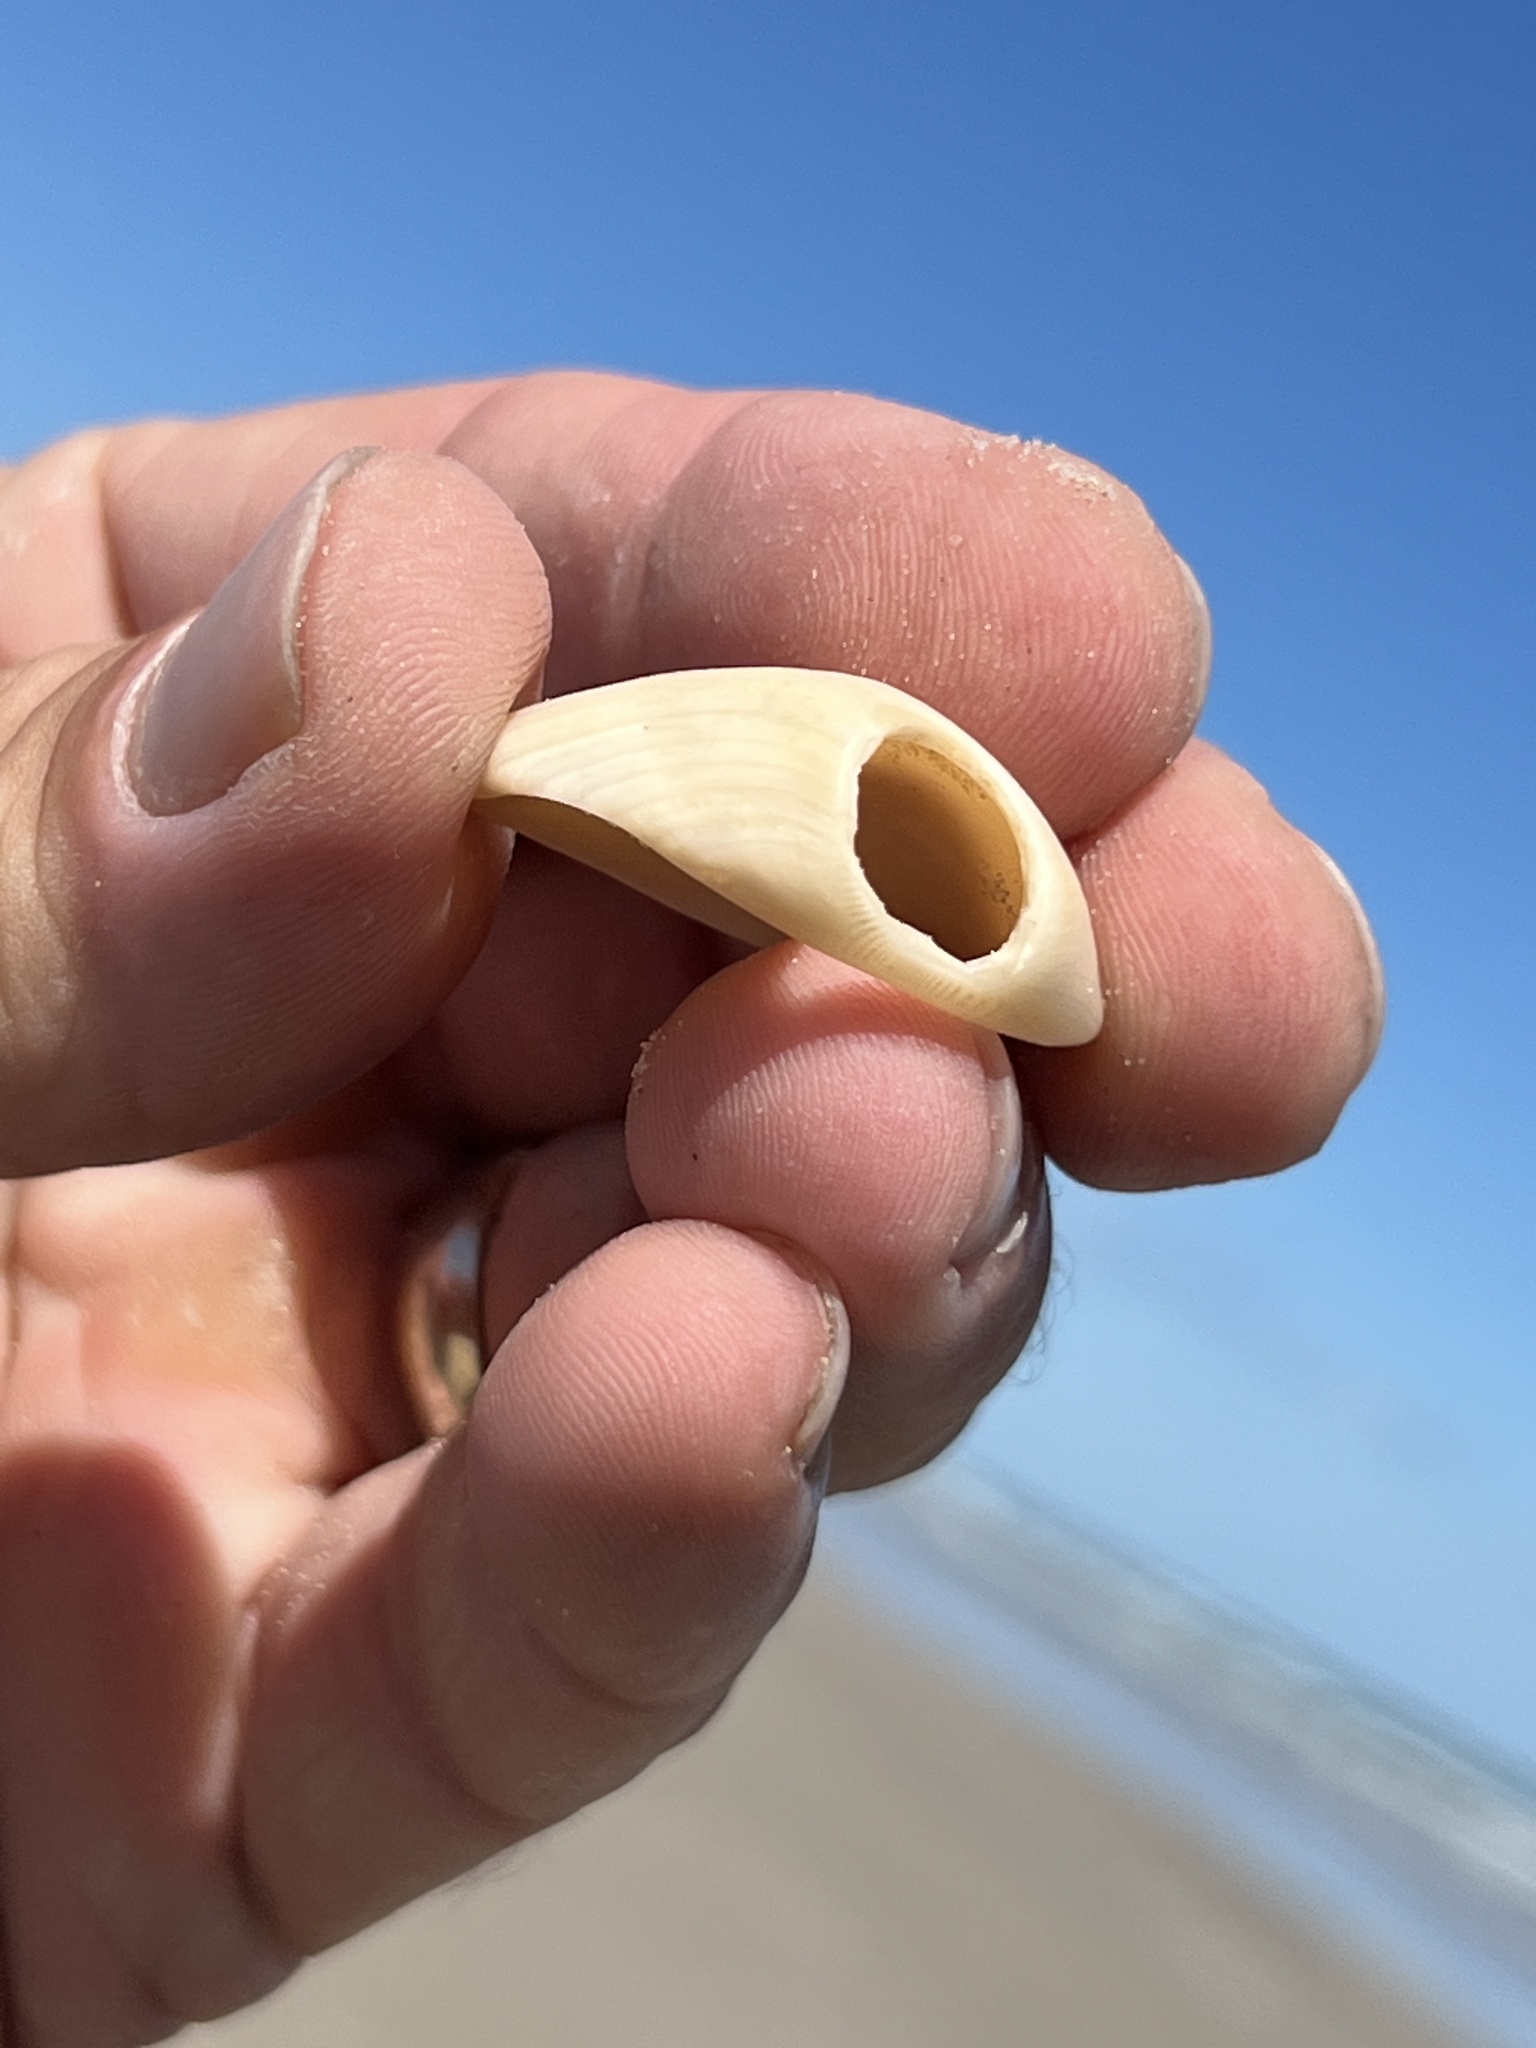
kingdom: Animalia
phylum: Mollusca
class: Bivalvia
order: Arcida
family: Noetiidae
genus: Noetia
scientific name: Noetia ponderosa
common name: Ponderous ark
